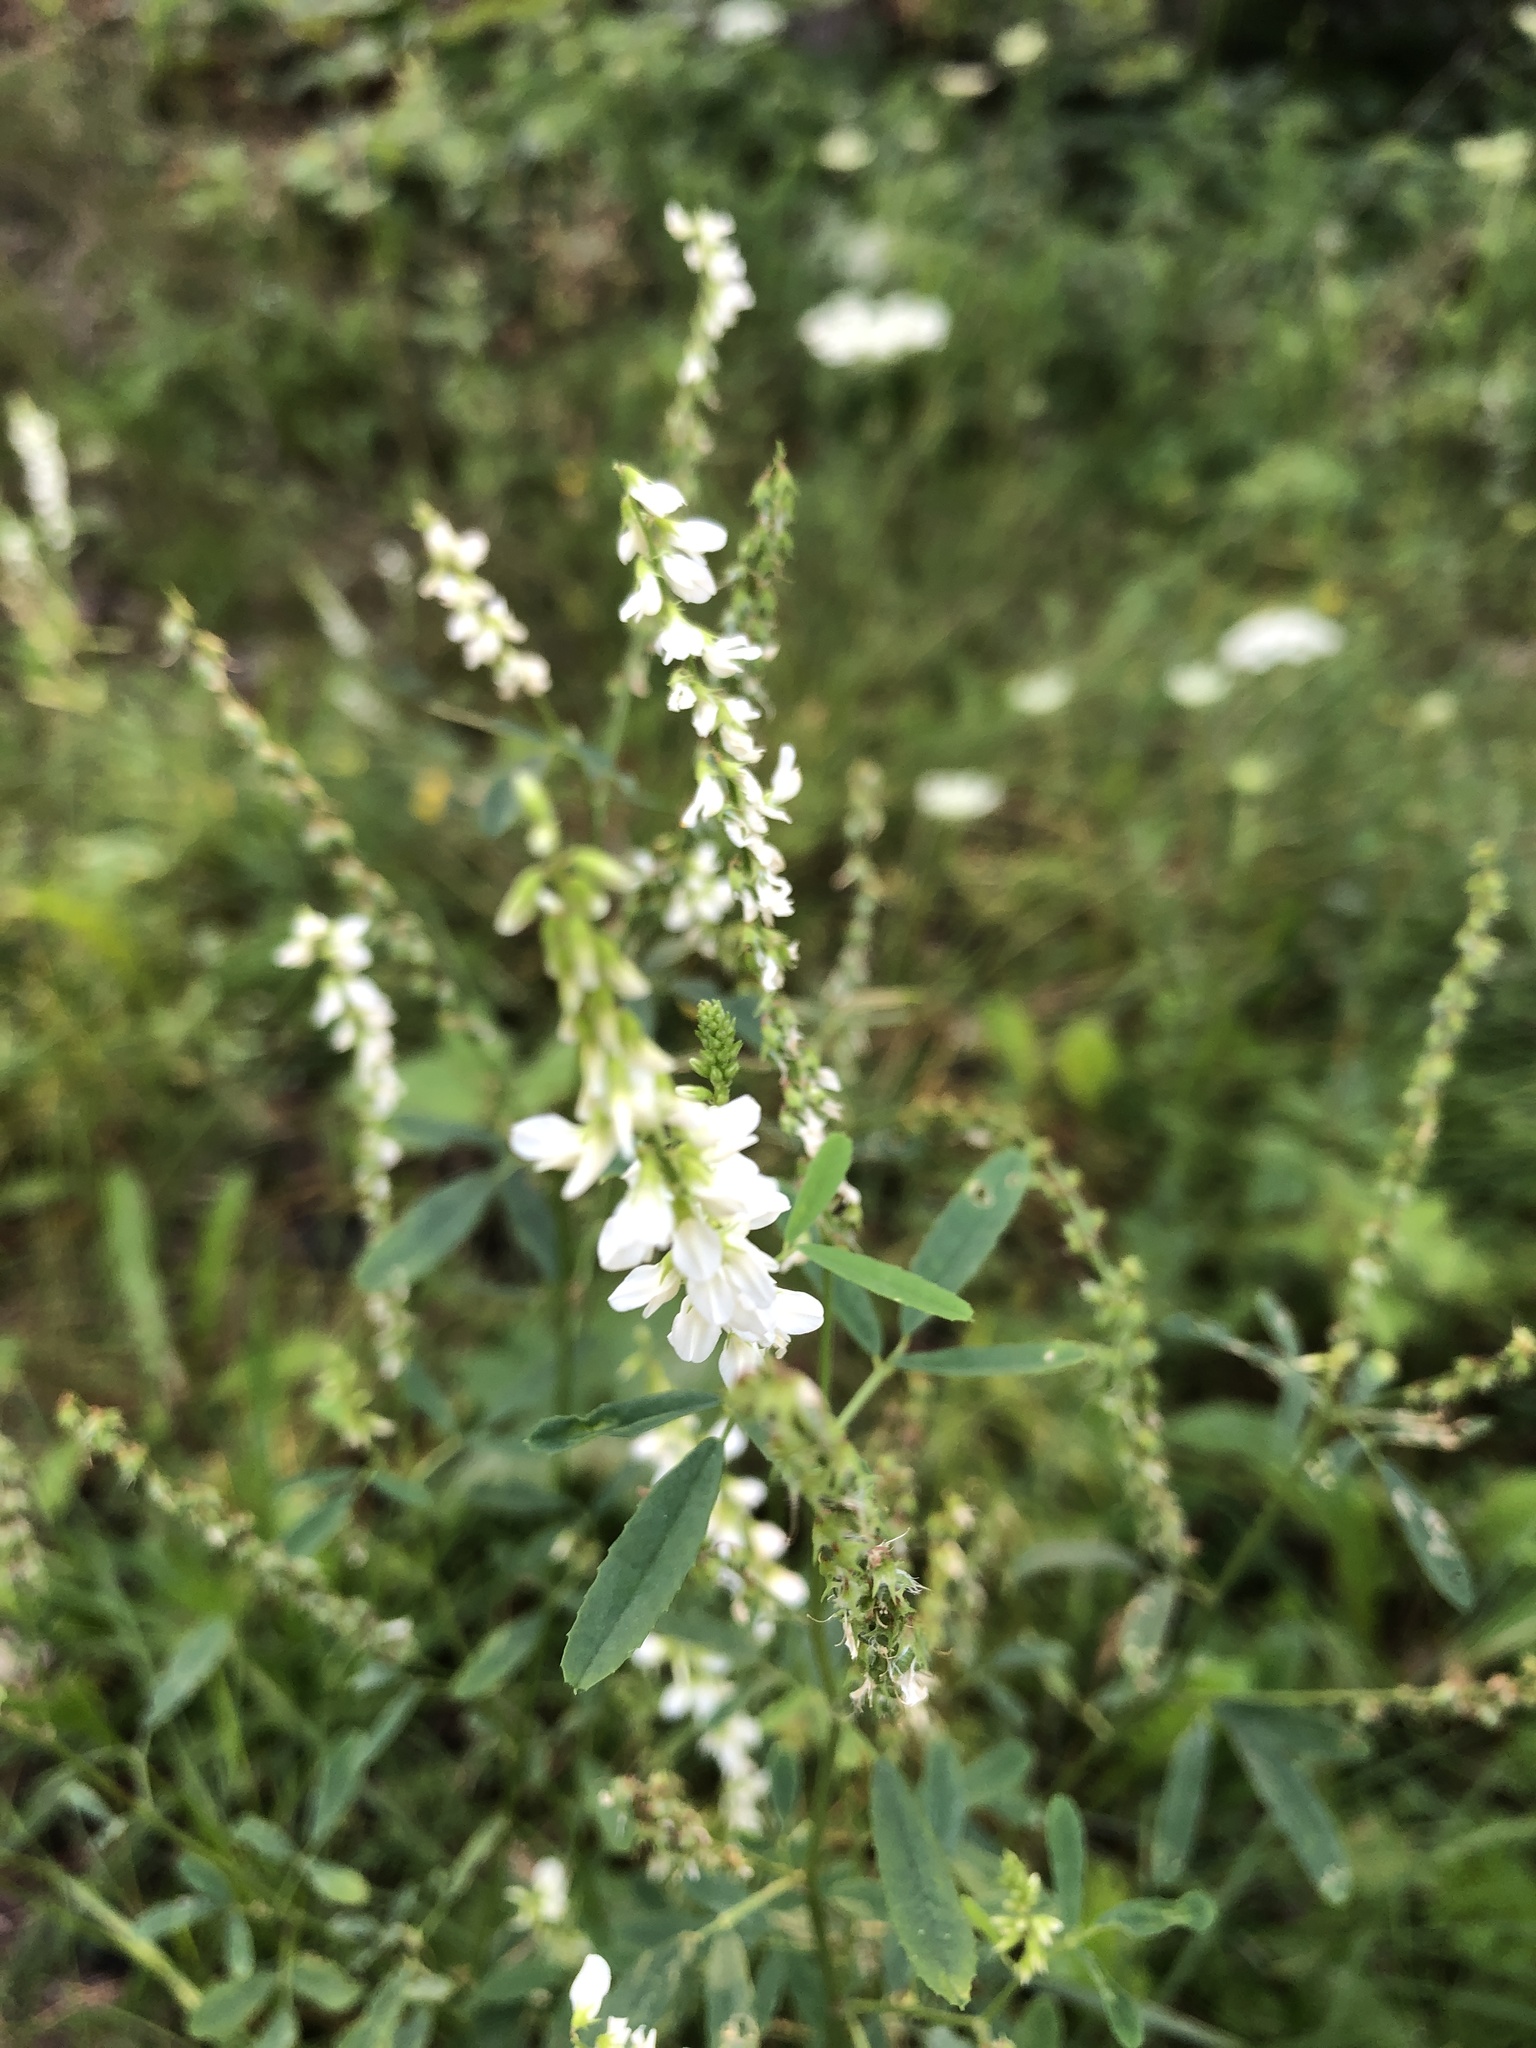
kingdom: Plantae
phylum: Tracheophyta
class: Magnoliopsida
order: Fabales
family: Fabaceae
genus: Melilotus
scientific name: Melilotus albus
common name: White melilot
